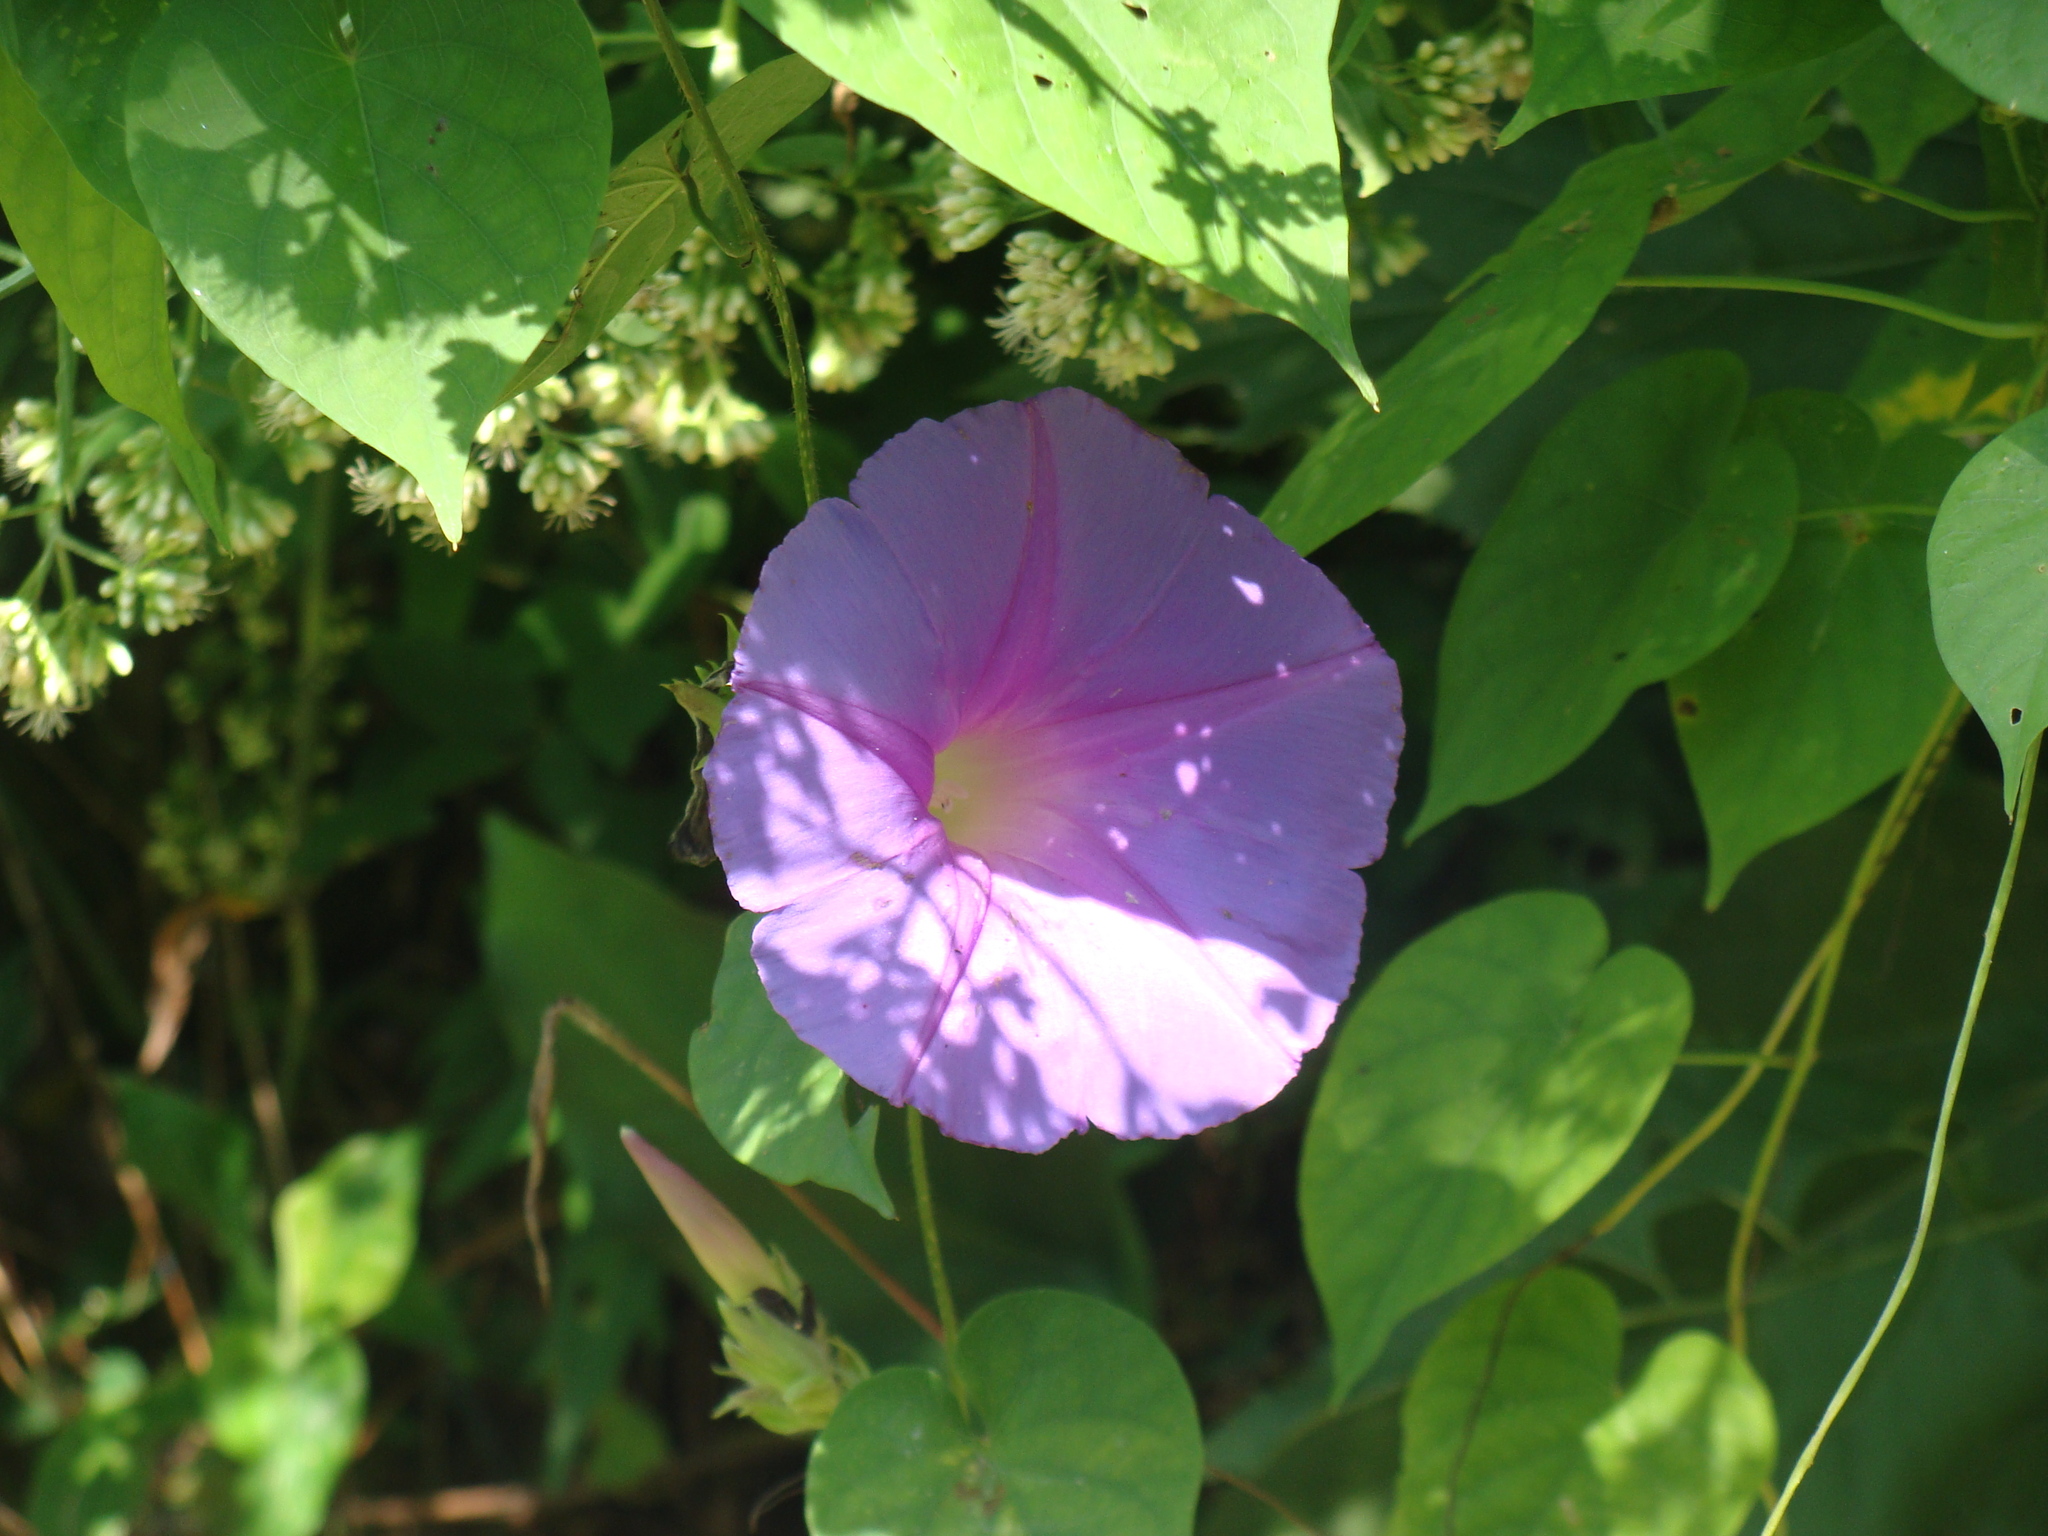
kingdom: Plantae
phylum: Tracheophyta
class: Magnoliopsida
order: Solanales
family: Convolvulaceae
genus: Ipomoea
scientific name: Ipomoea mitchelliae
